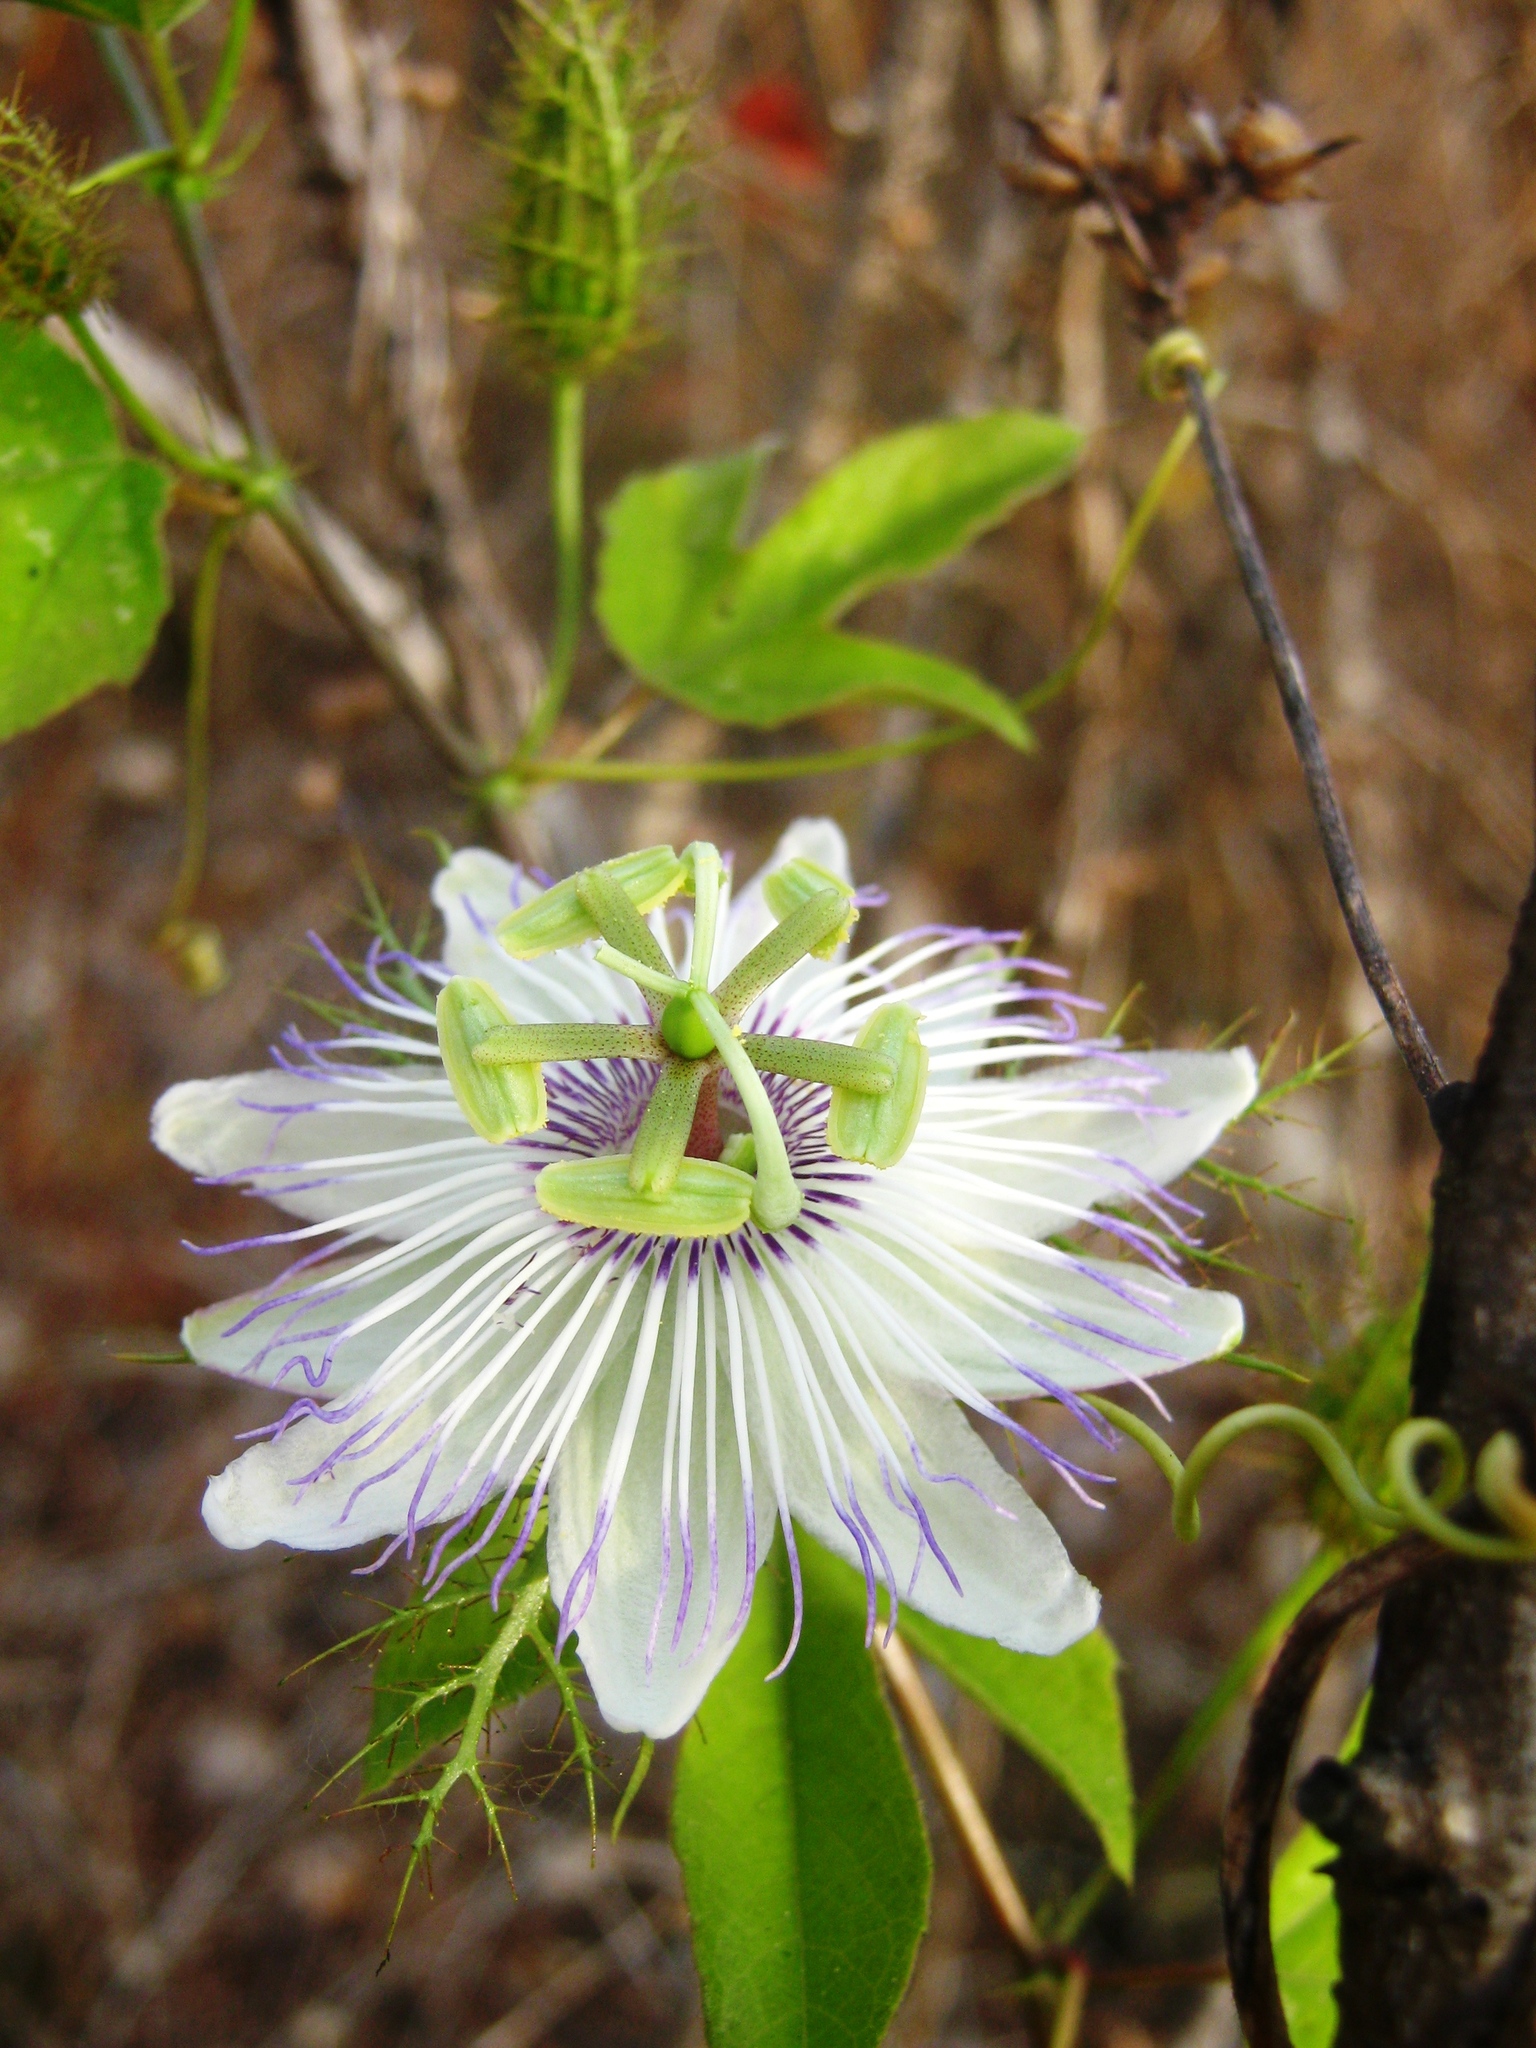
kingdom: Plantae
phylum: Tracheophyta
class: Magnoliopsida
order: Malpighiales
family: Passifloraceae
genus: Passiflora
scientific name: Passiflora foetida
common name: Fetid passionflower
